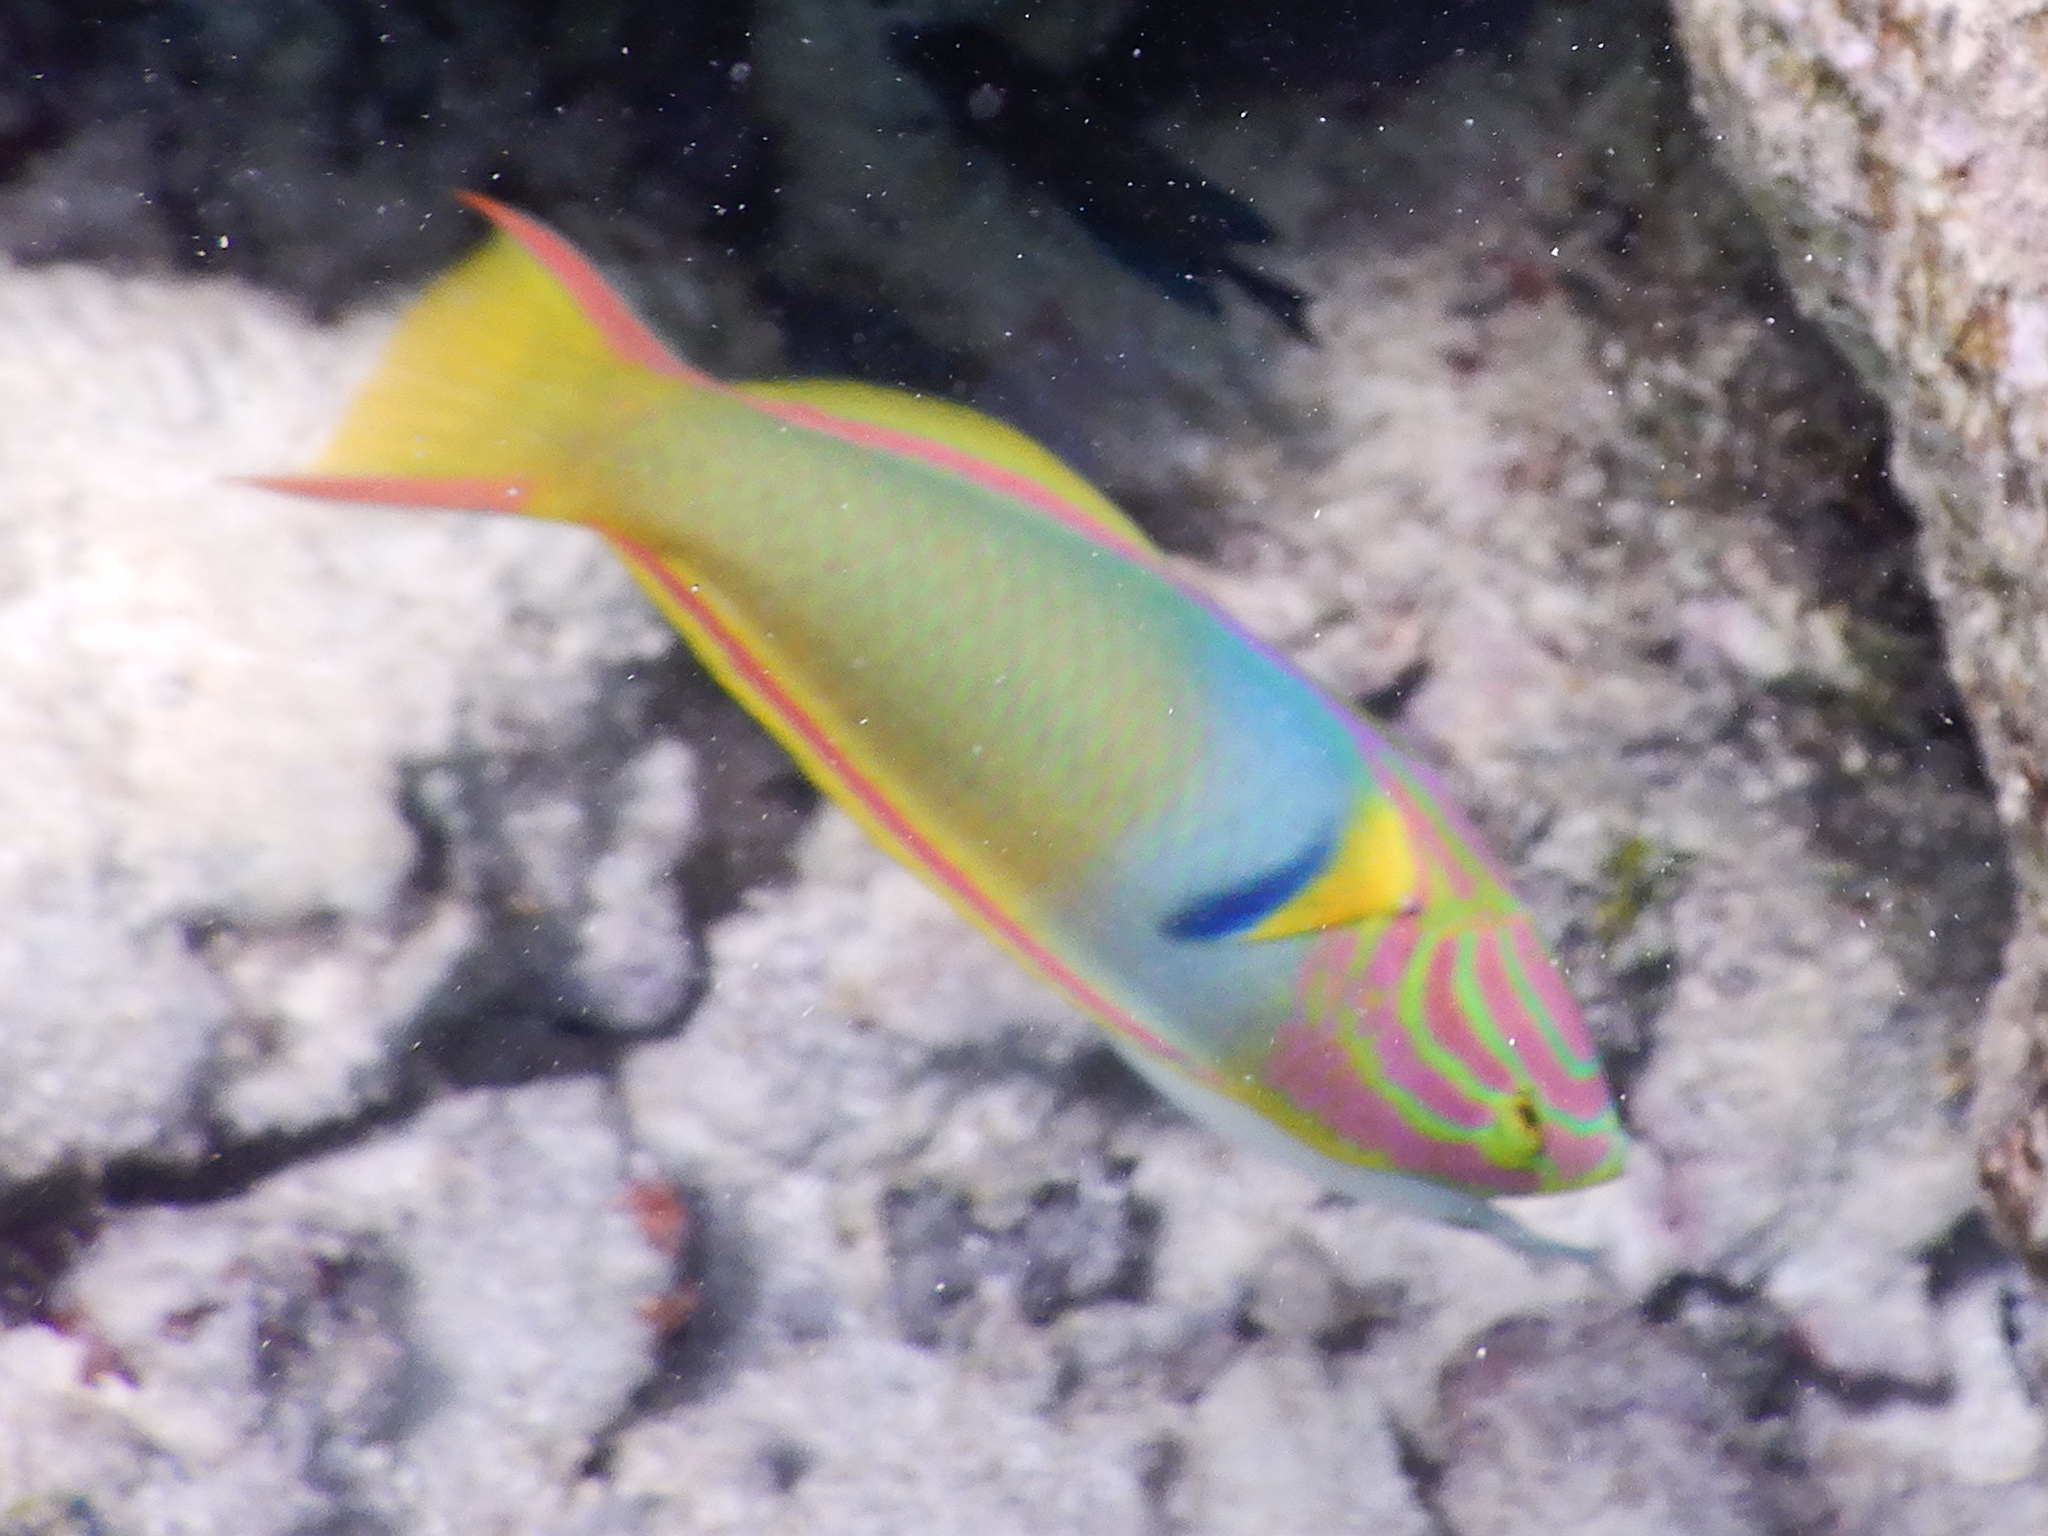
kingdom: Animalia
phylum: Chordata
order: Perciformes
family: Labridae
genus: Thalassoma
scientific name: Thalassoma lutescens
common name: Green moon wrasse
